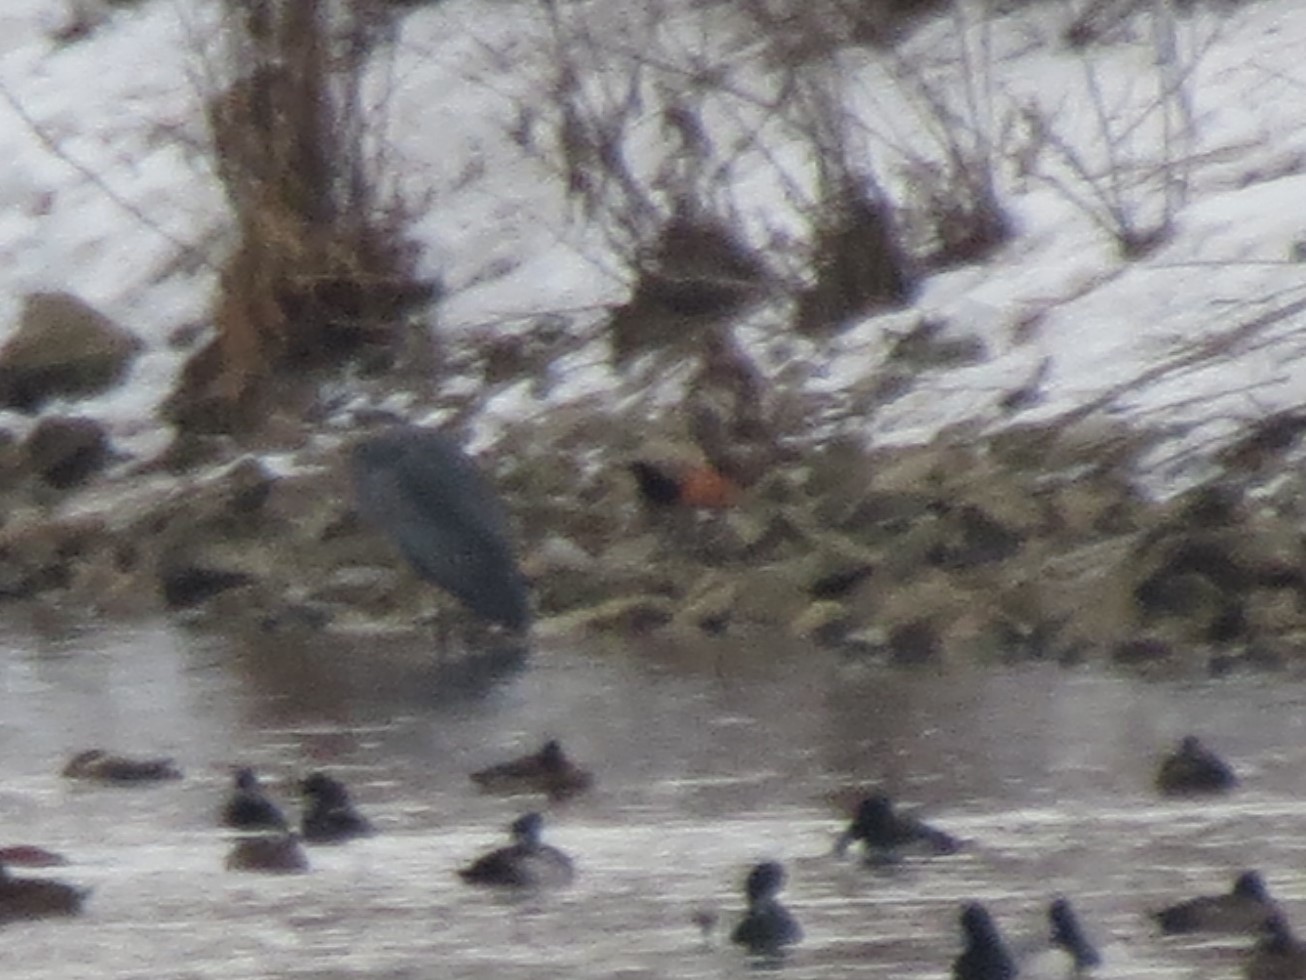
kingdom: Animalia
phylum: Chordata
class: Aves
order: Anseriformes
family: Anatidae
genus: Aythya
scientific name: Aythya collaris
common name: Ring-necked duck
